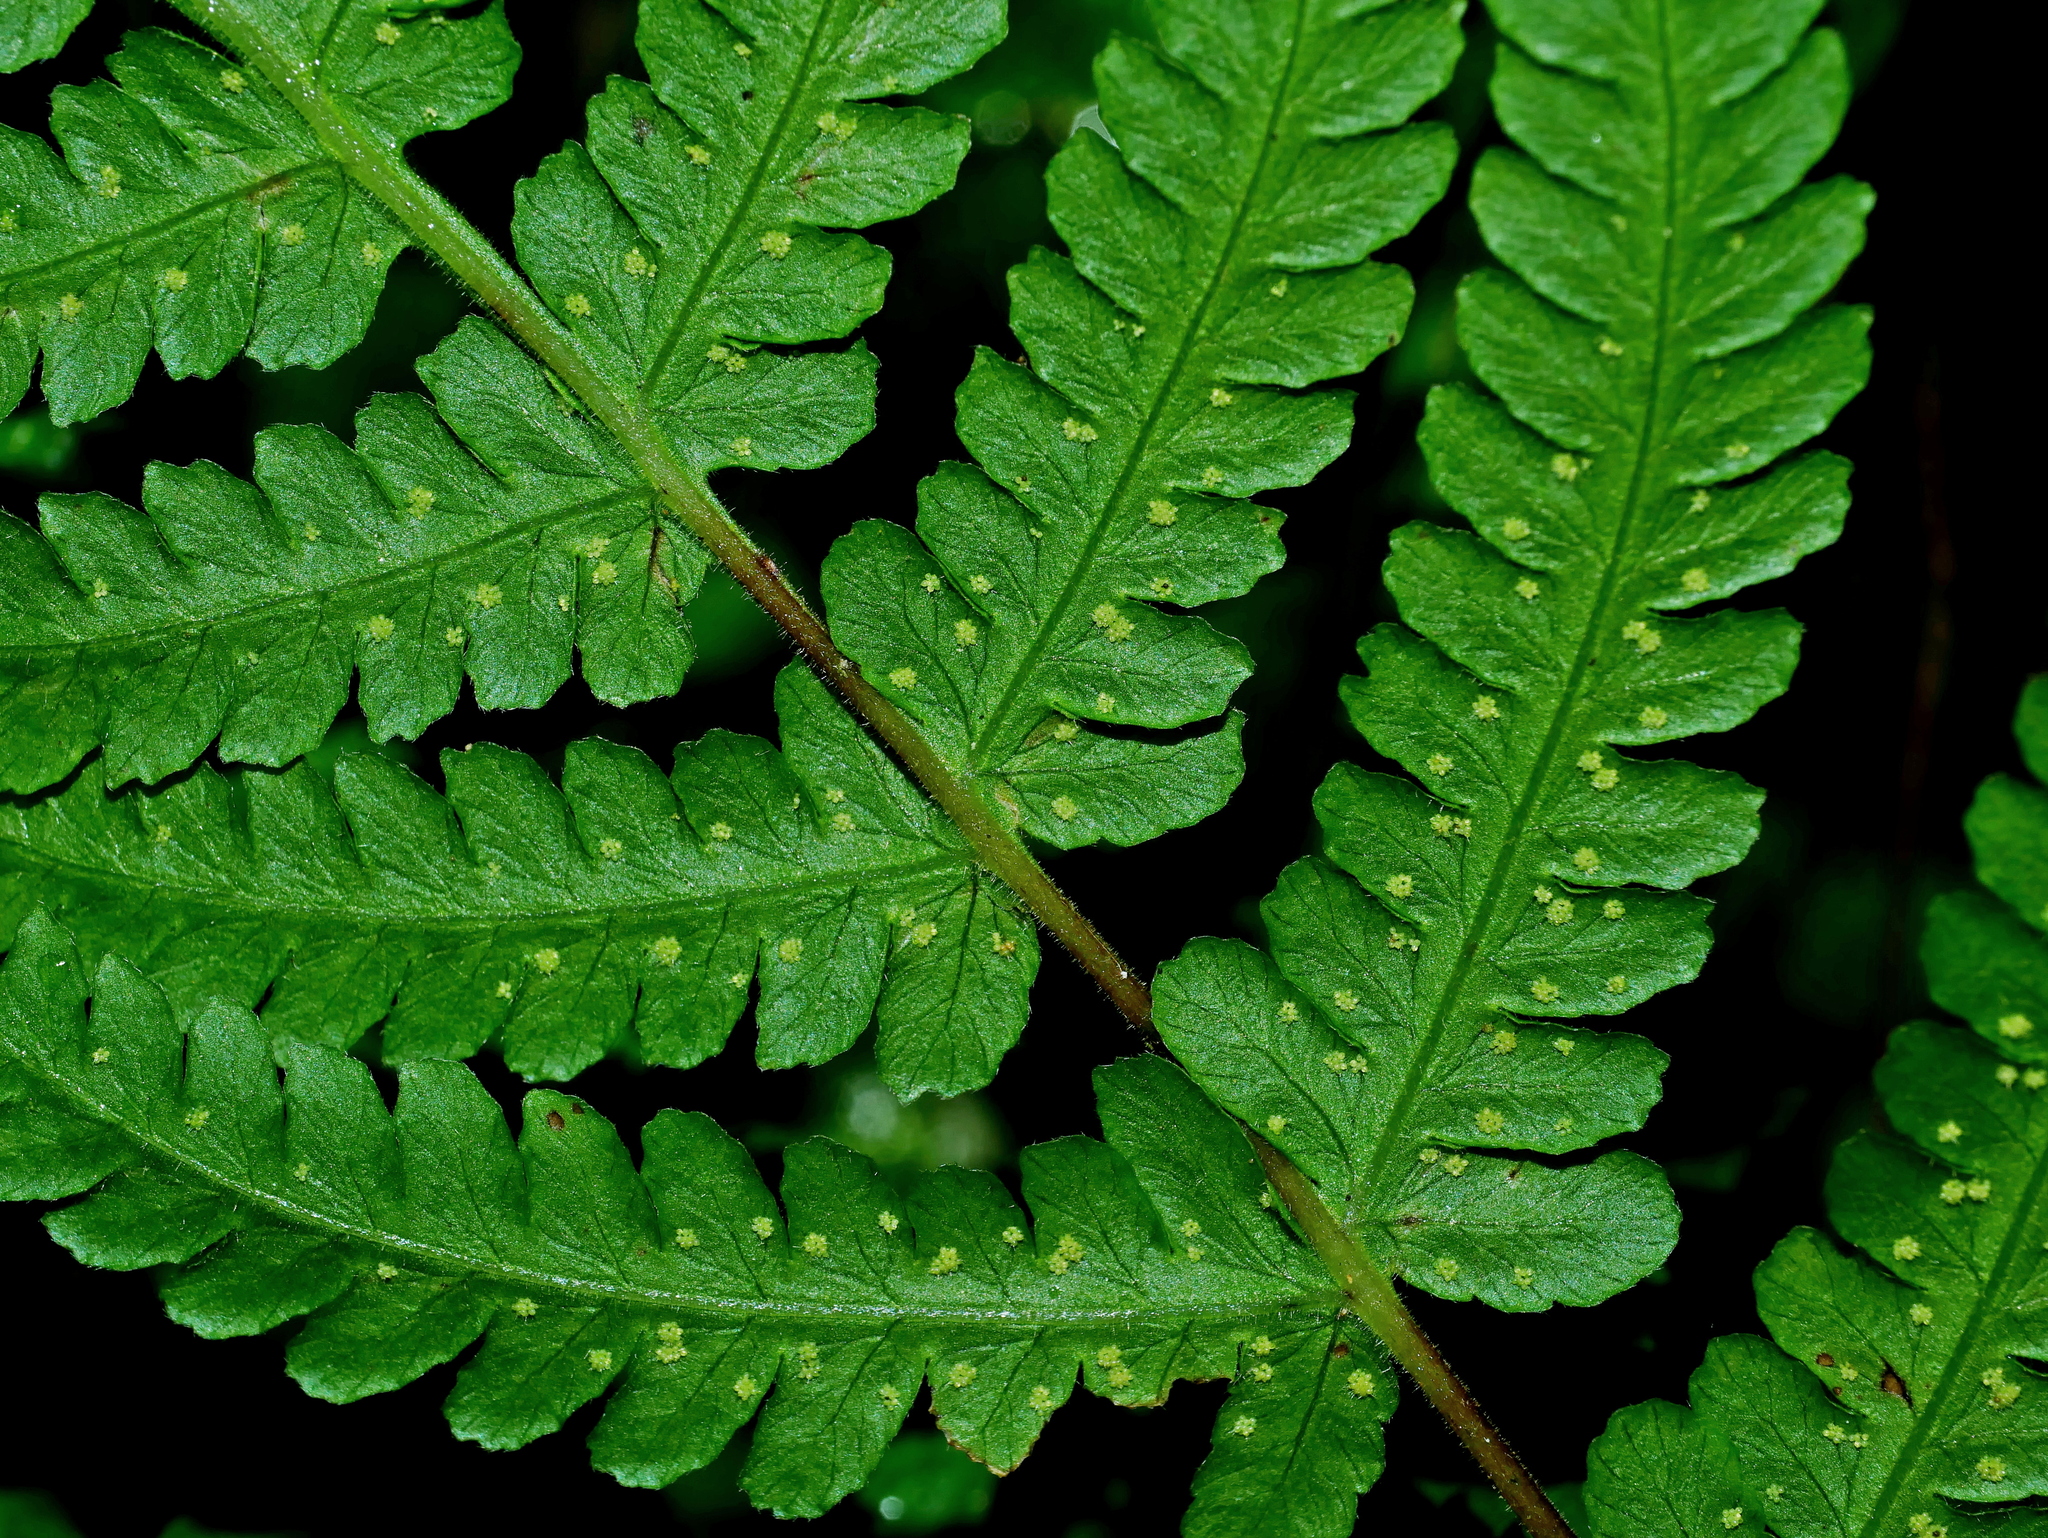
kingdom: Plantae
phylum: Tracheophyta
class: Polypodiopsida
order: Polypodiales
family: Thelypteridaceae
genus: Pseudophegopteris
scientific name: Pseudophegopteris hirtirachis
